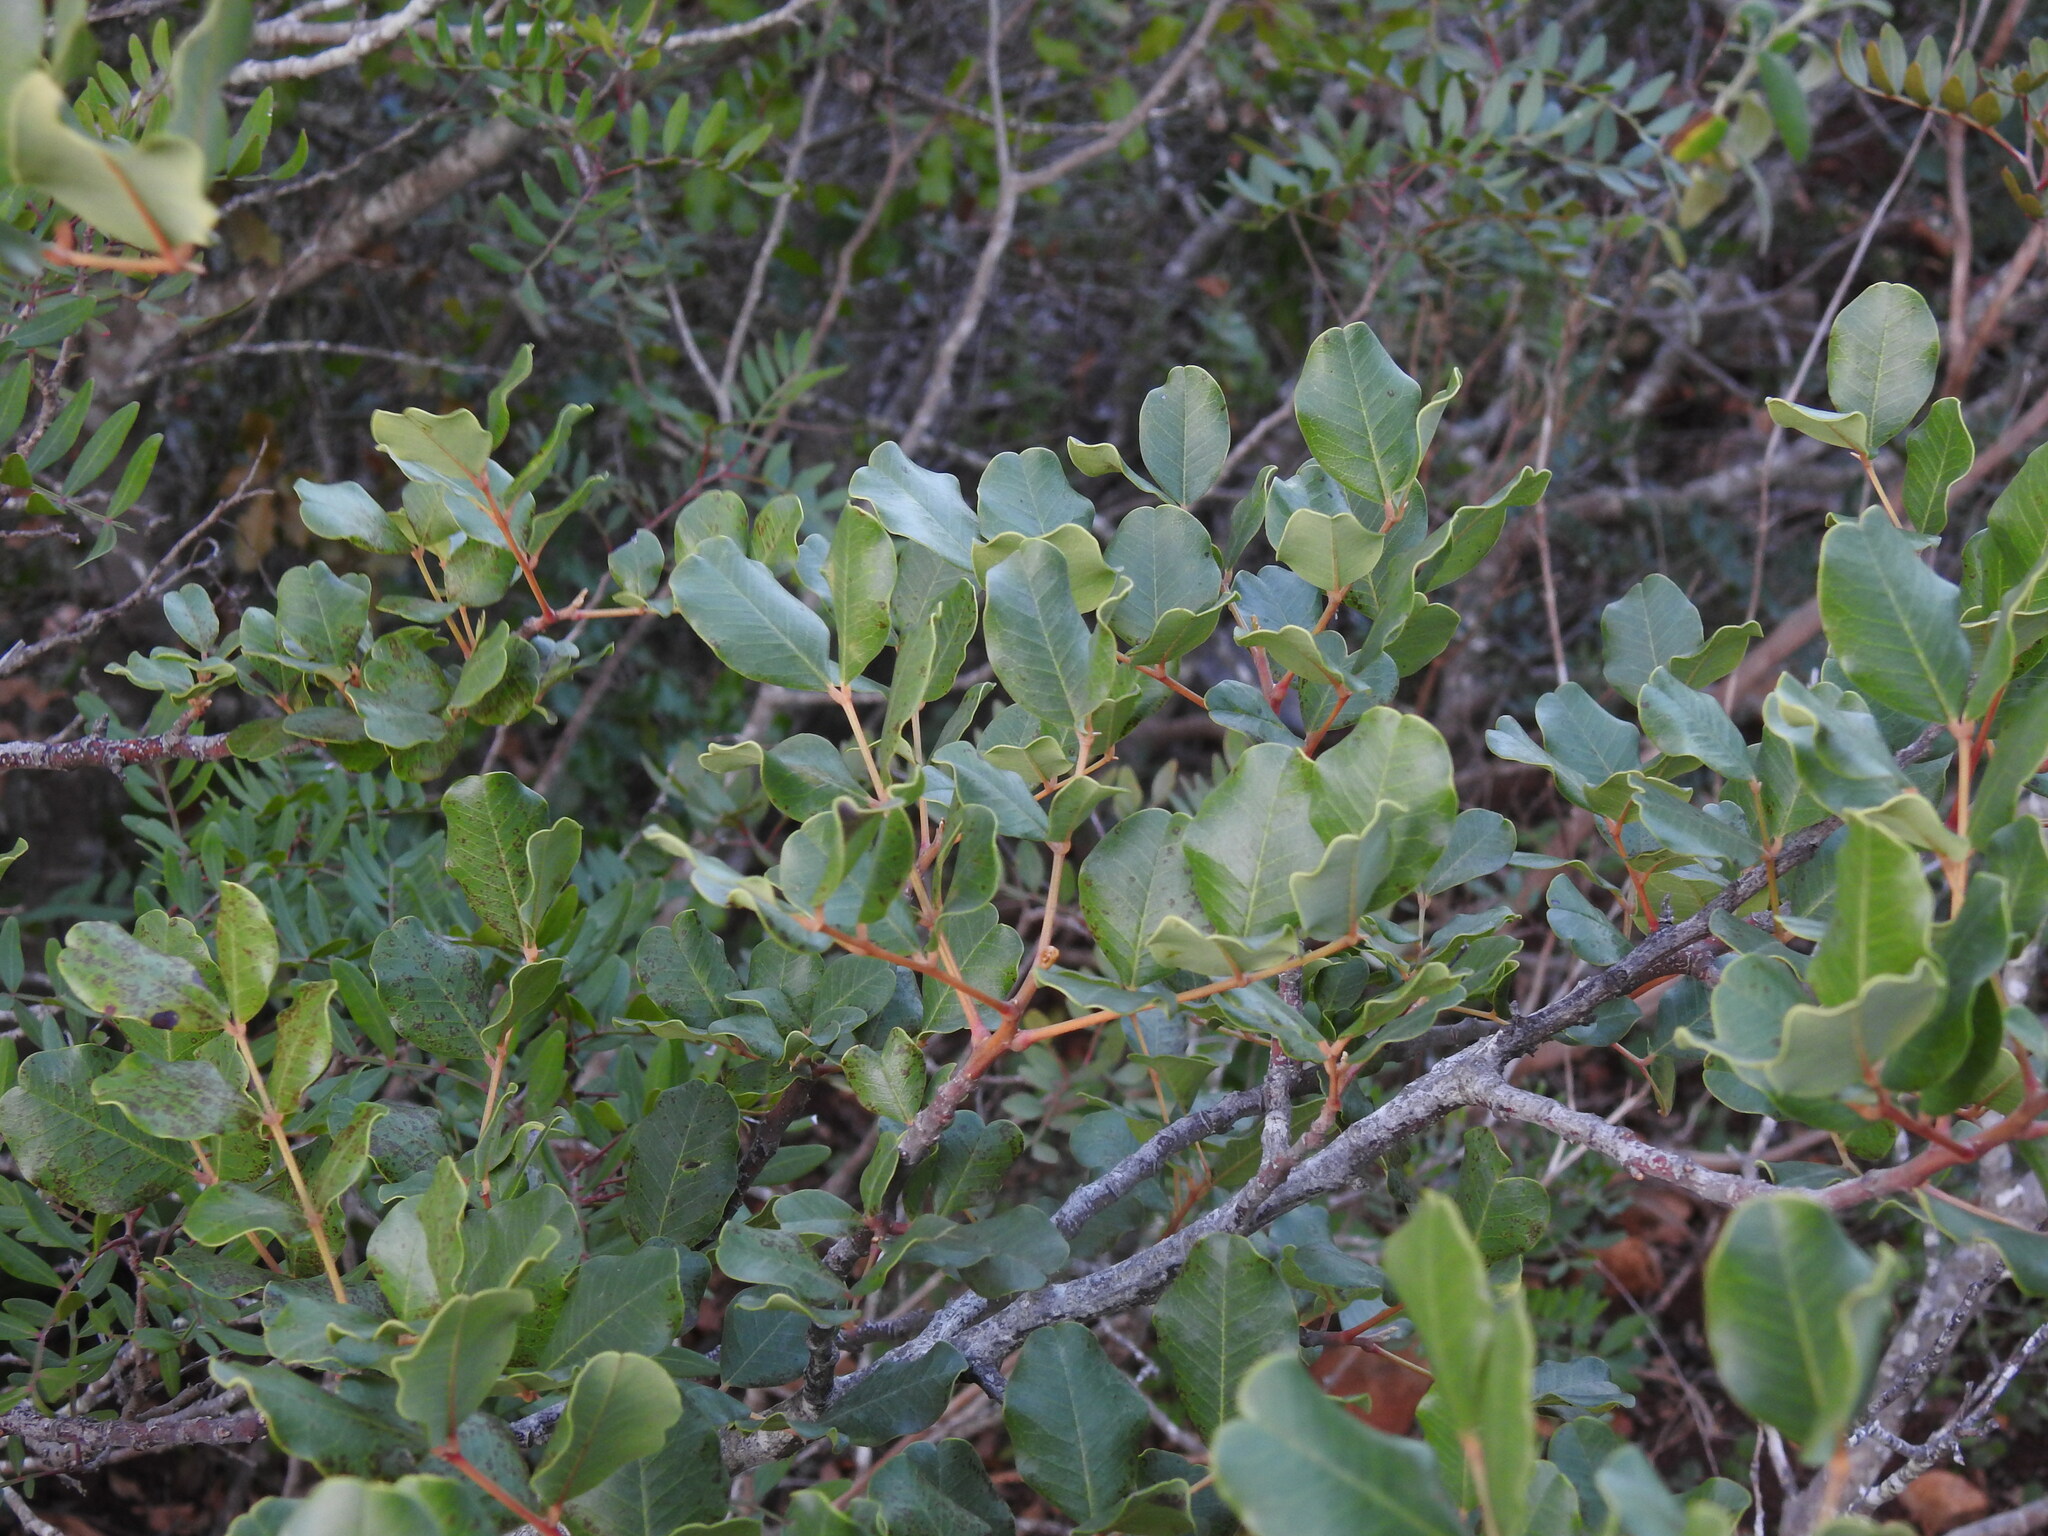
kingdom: Plantae
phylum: Tracheophyta
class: Magnoliopsida
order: Fabales
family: Fabaceae
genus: Ceratonia
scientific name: Ceratonia siliqua
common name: Carob
